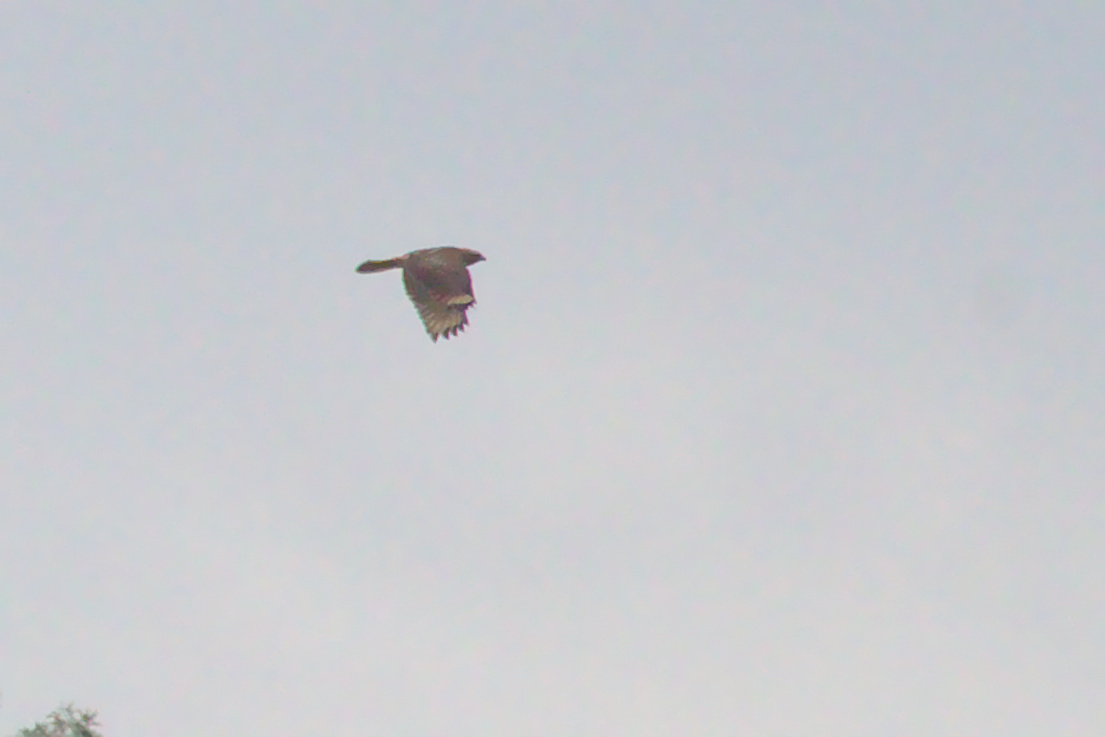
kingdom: Animalia
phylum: Chordata
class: Aves
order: Accipitriformes
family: Accipitridae
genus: Buteo
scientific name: Buteo lineatus
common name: Red-shouldered hawk
